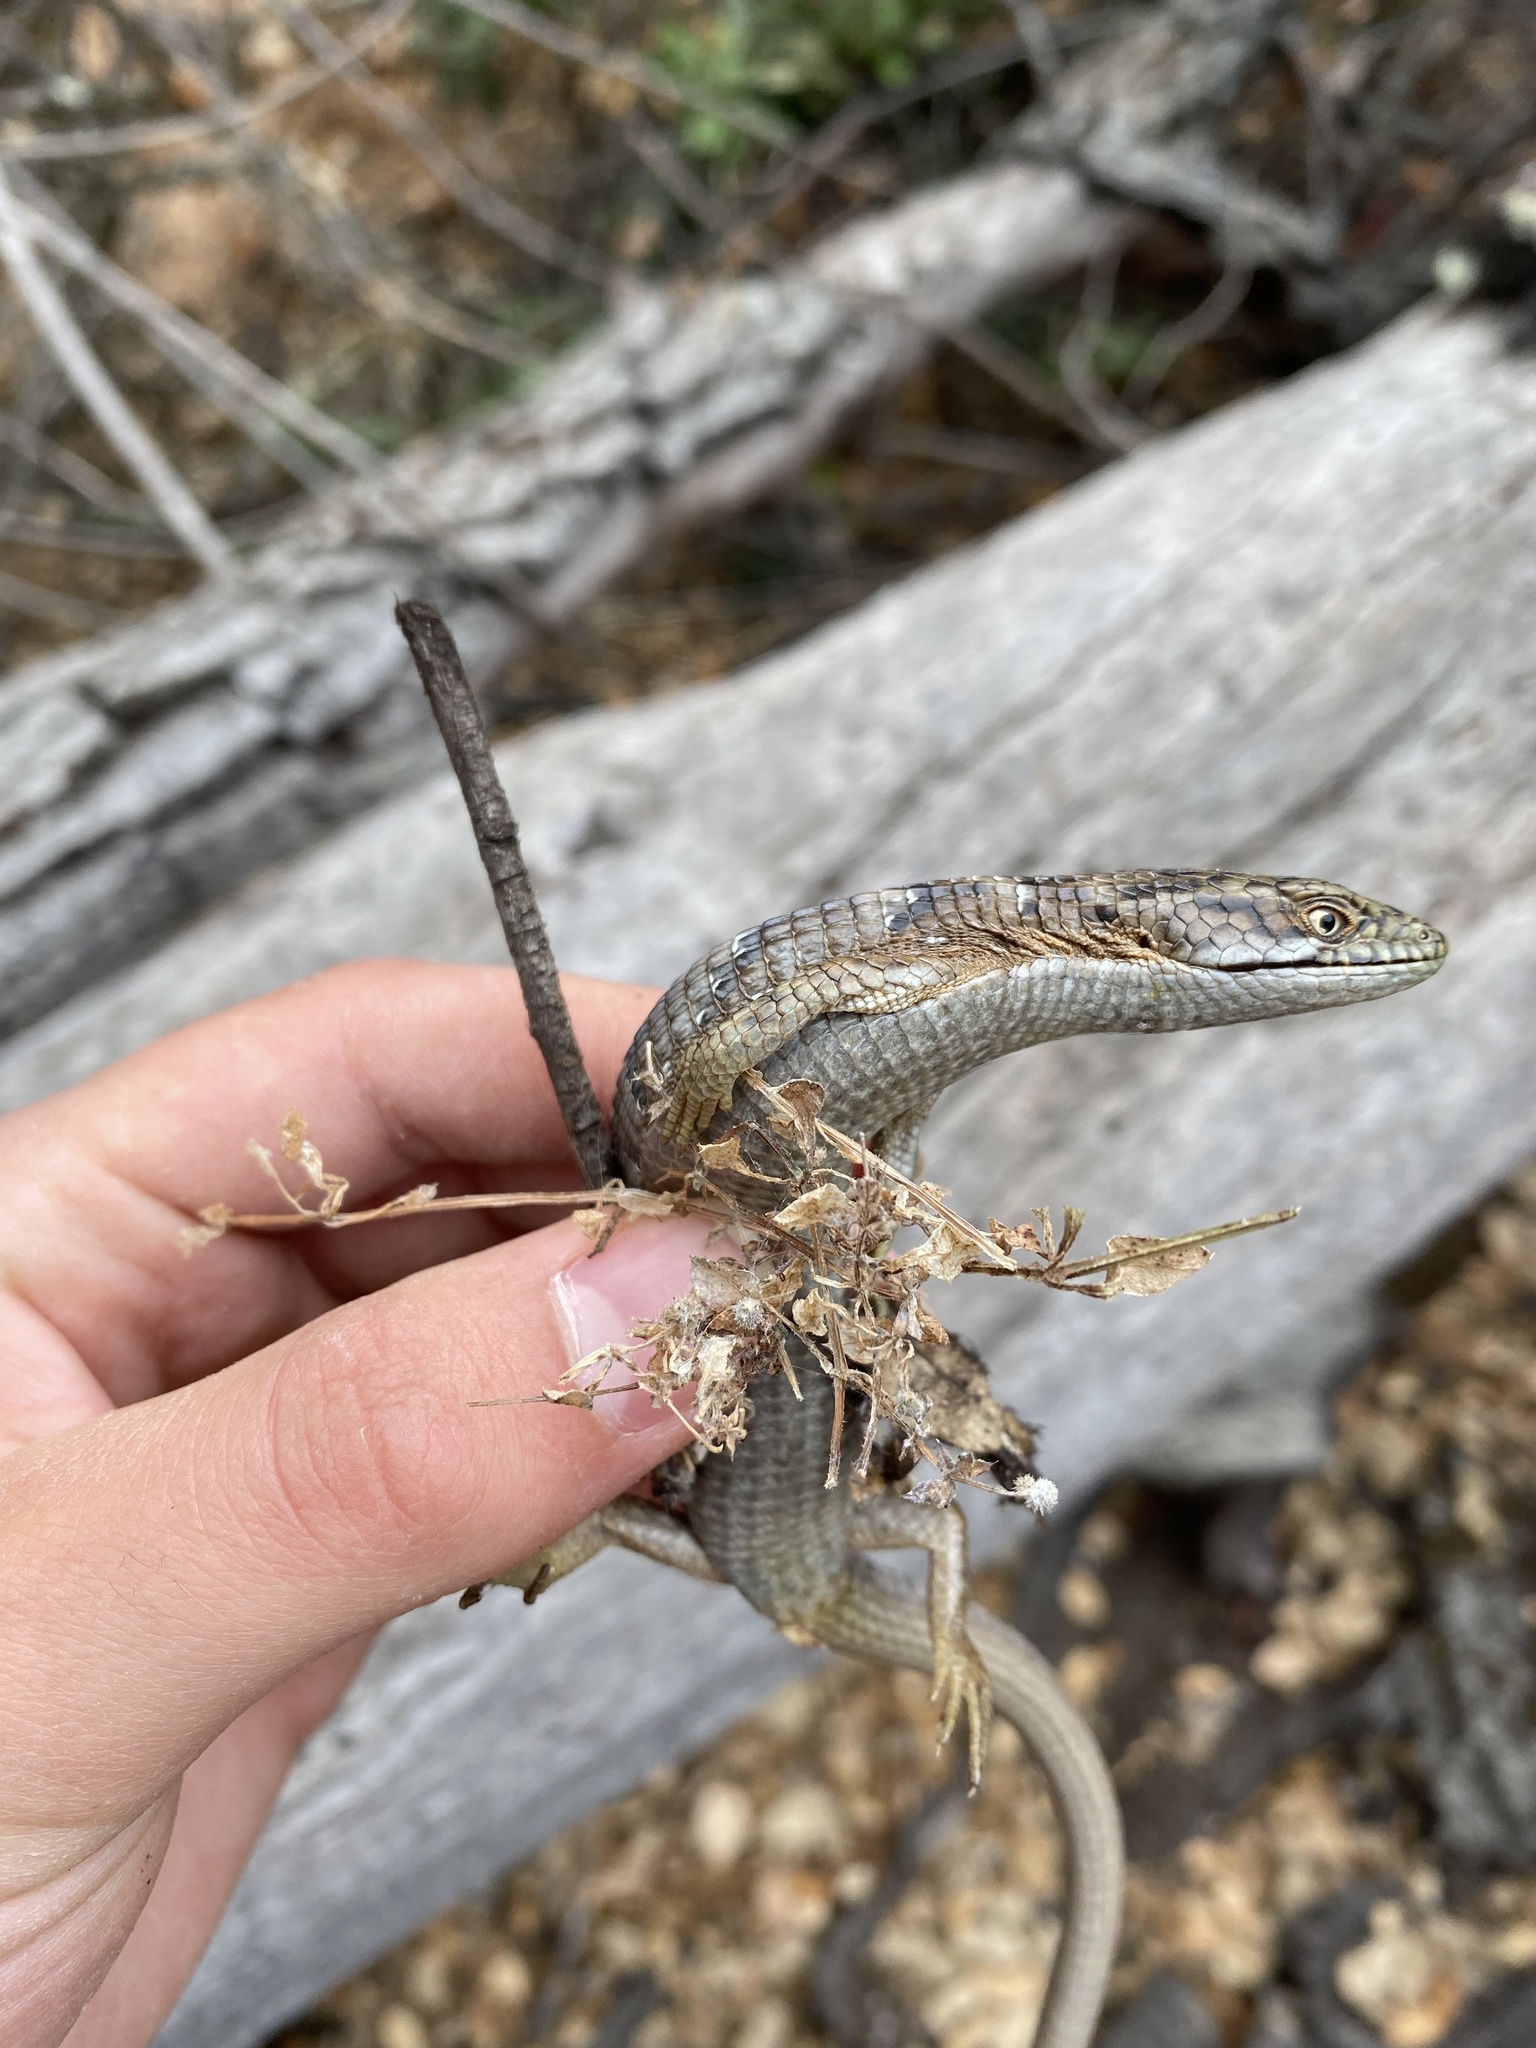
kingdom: Animalia
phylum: Chordata
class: Squamata
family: Anguidae
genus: Elgaria
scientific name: Elgaria multicarinata
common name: Southern alligator lizard
